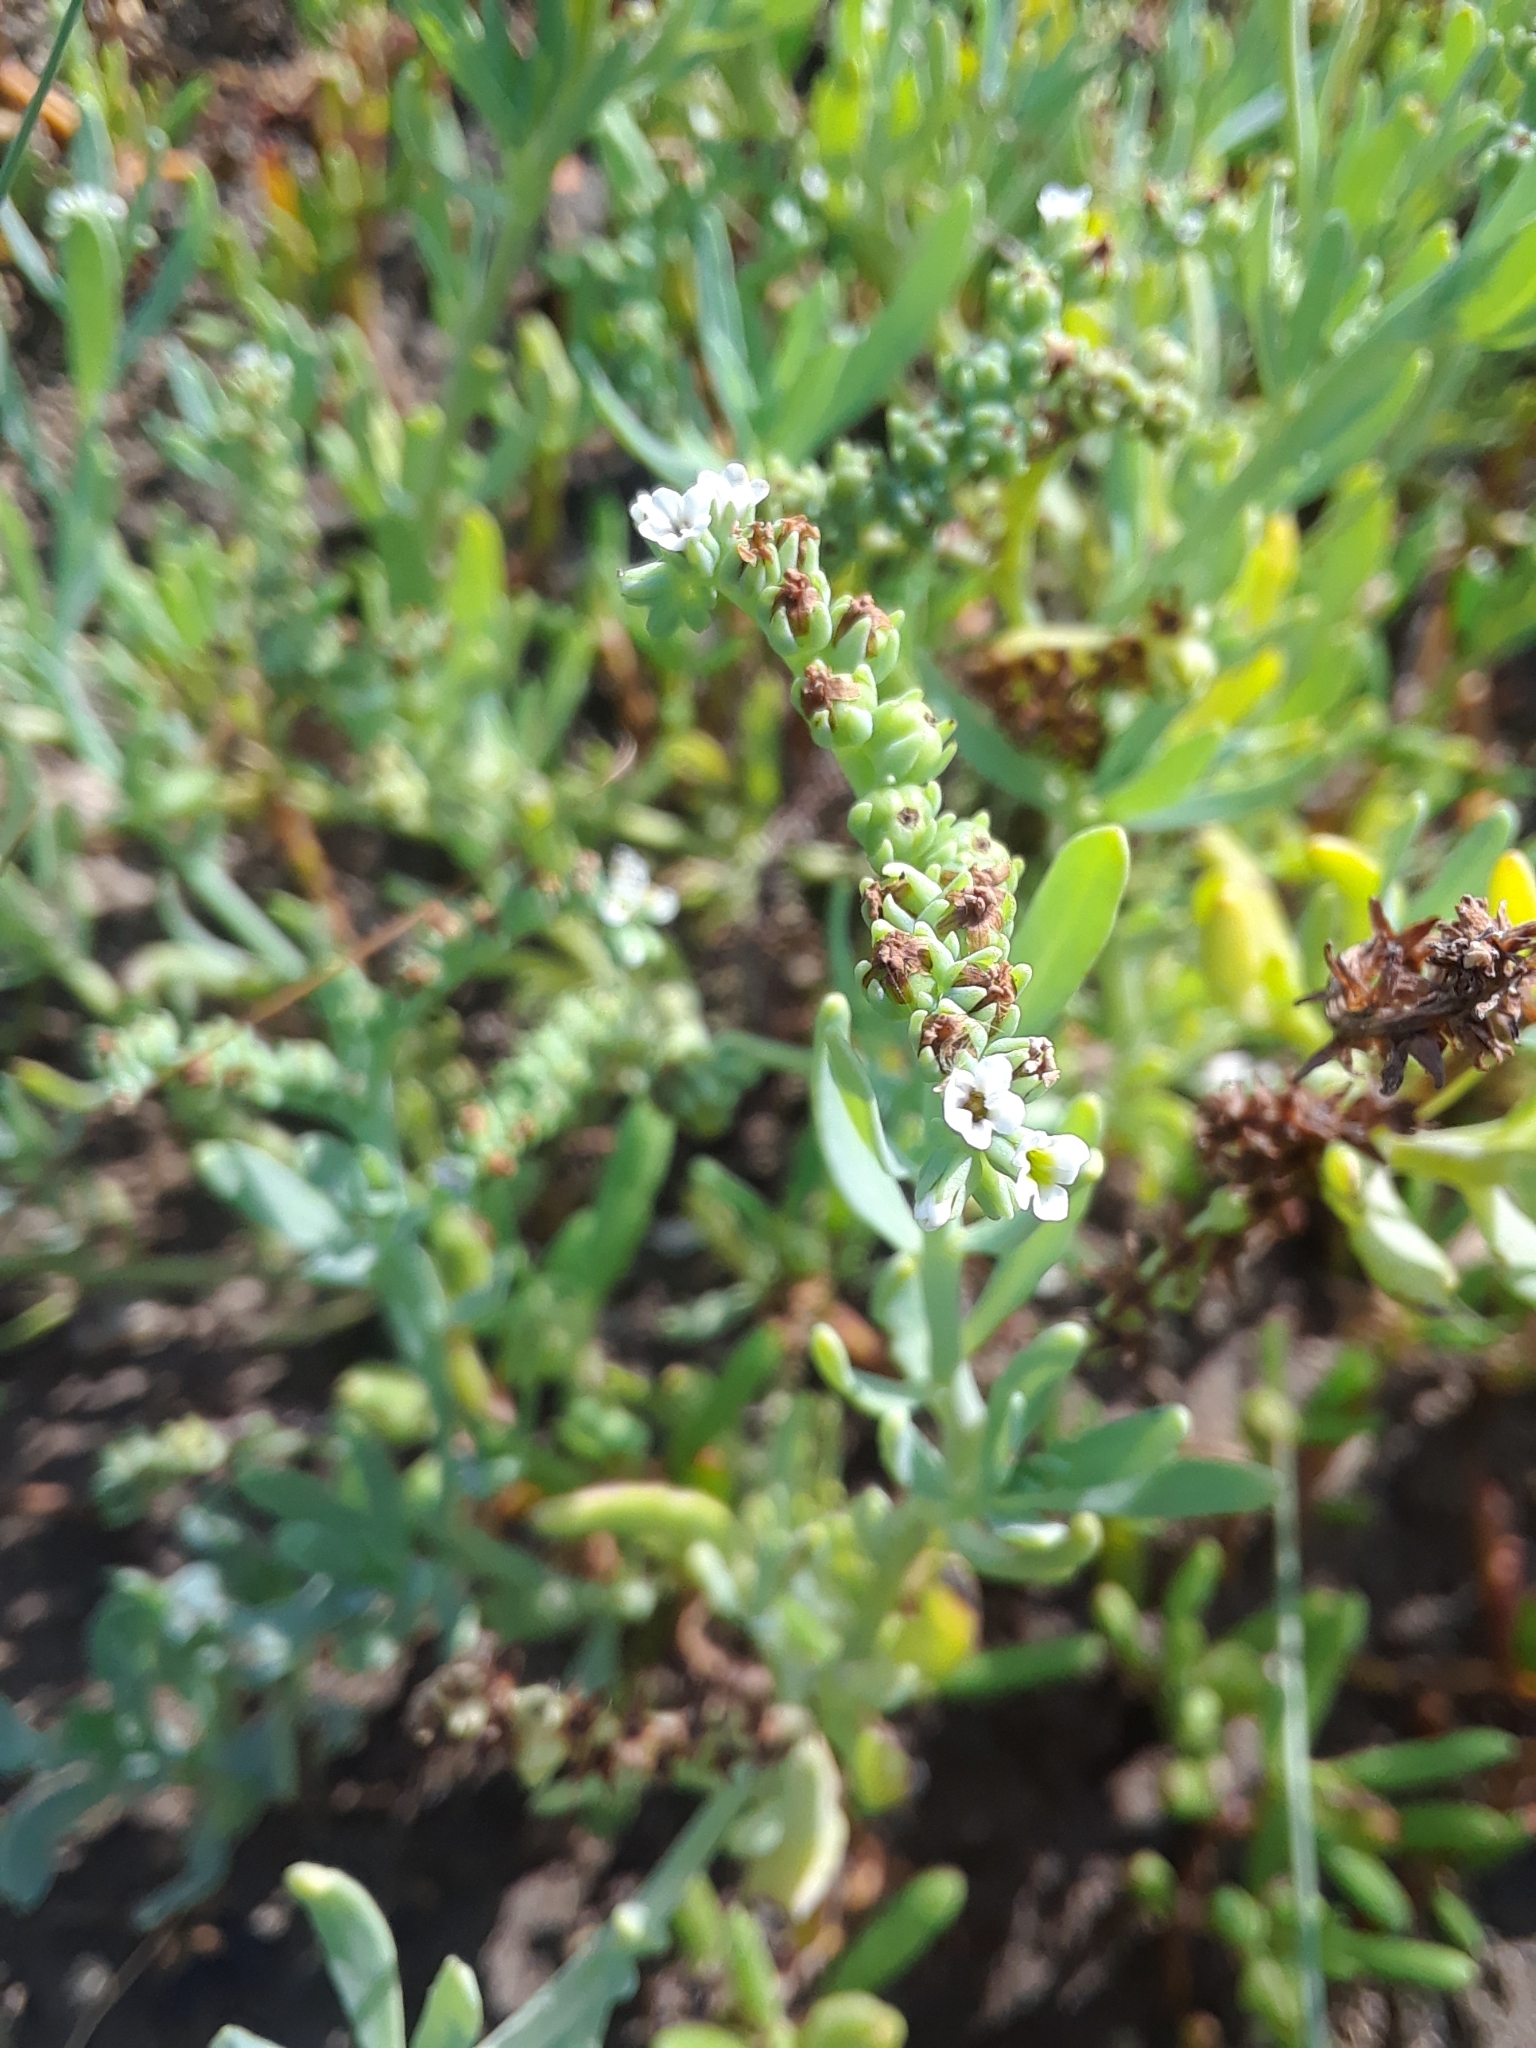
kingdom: Plantae
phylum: Tracheophyta
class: Magnoliopsida
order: Boraginales
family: Heliotropiaceae
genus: Heliotropium
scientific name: Heliotropium curassavicum
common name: Seaside heliotrope
